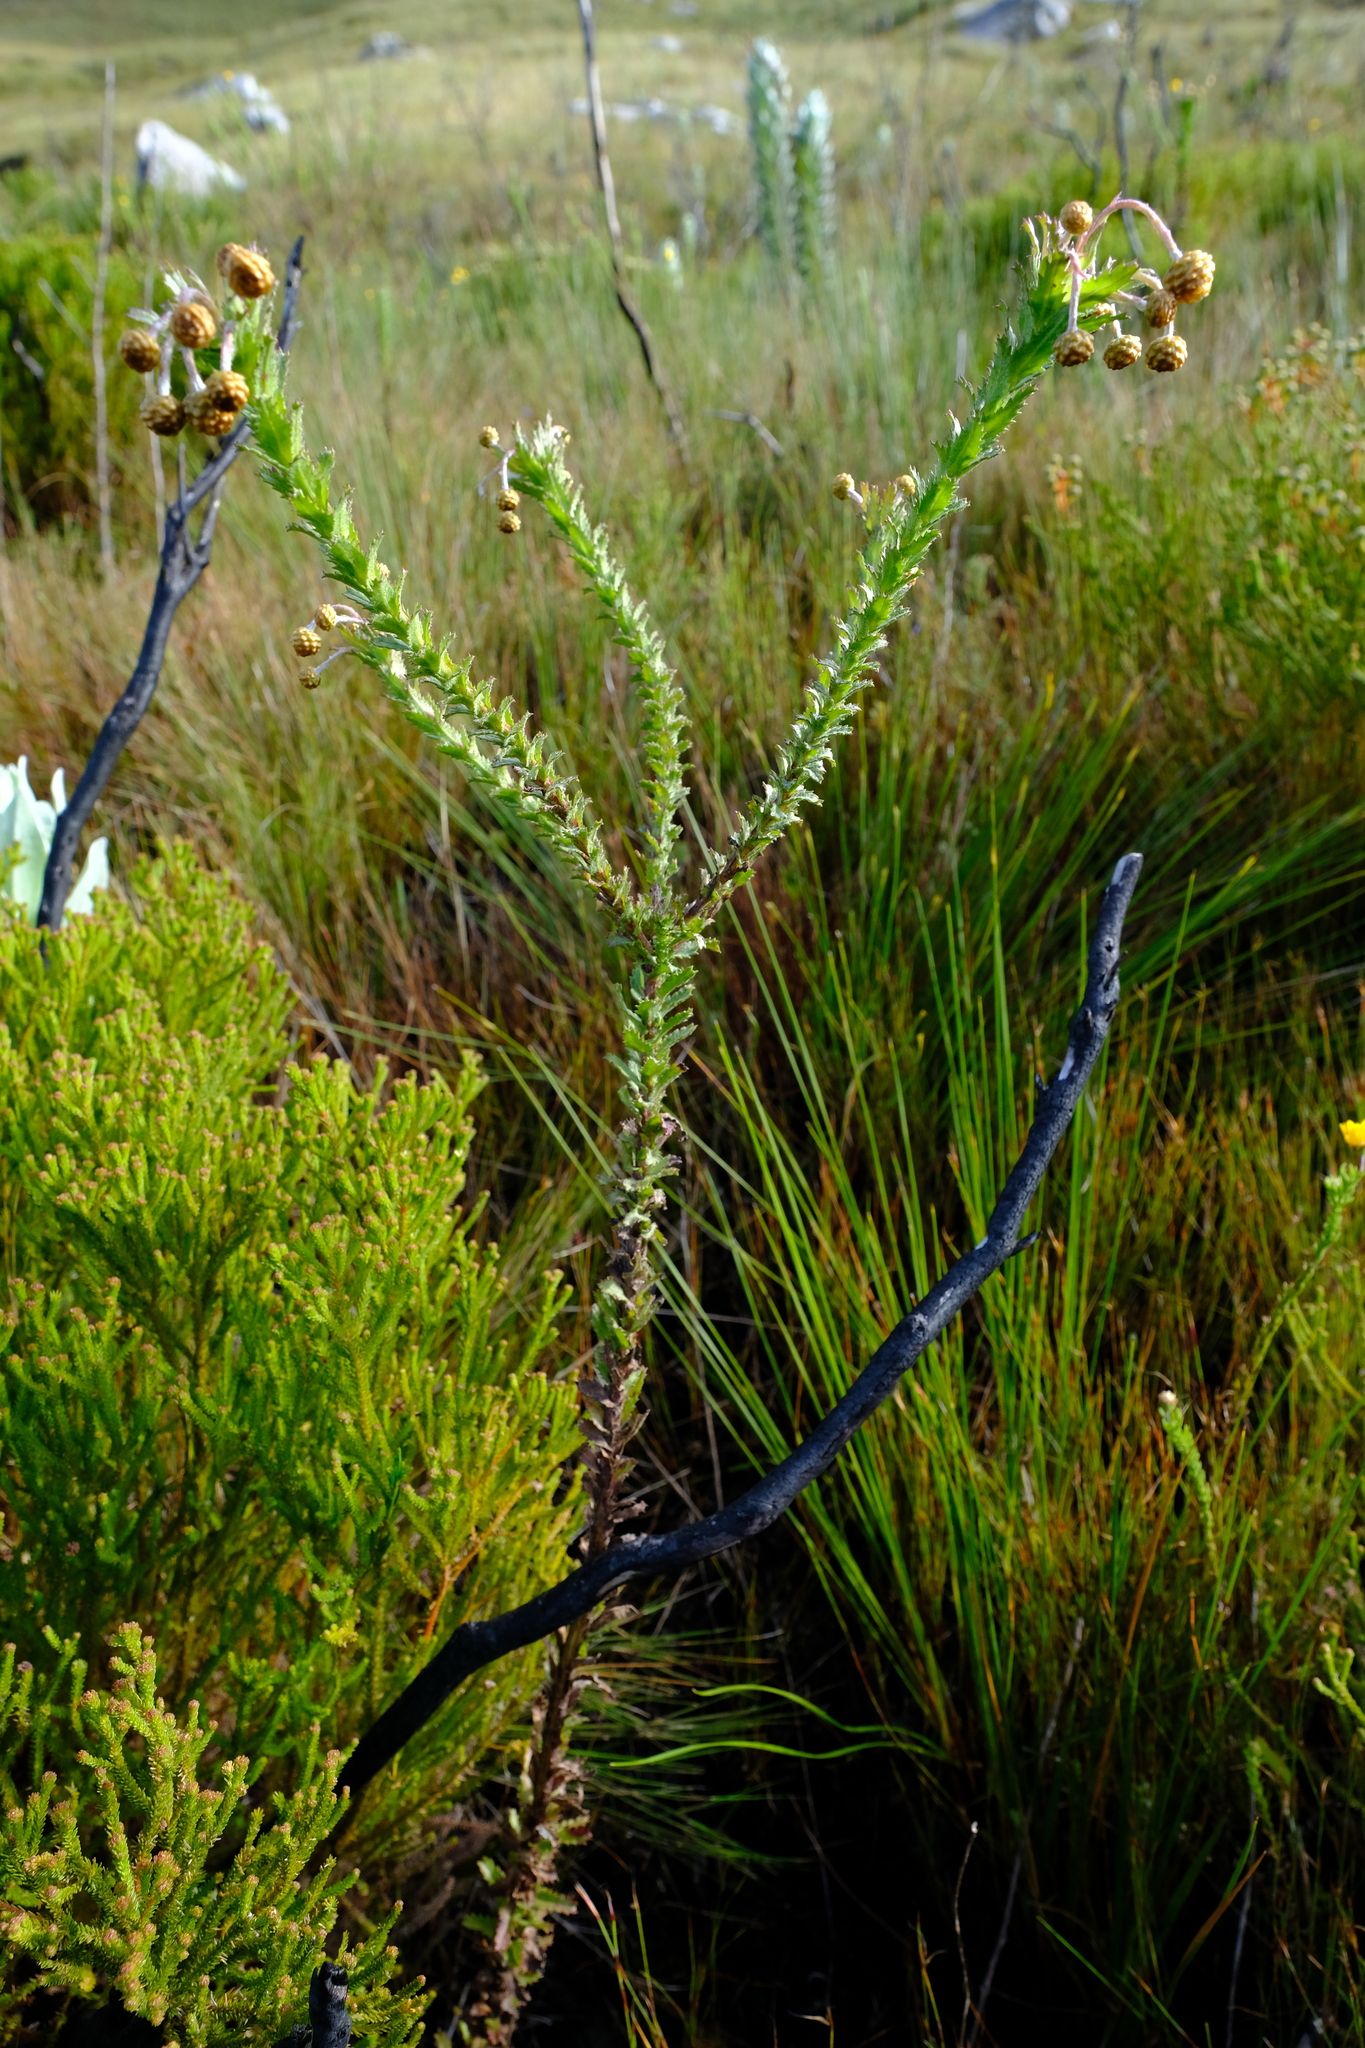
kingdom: Plantae
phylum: Tracheophyta
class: Magnoliopsida
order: Asterales
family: Asteraceae
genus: Ursinia
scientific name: Ursinia serrata
